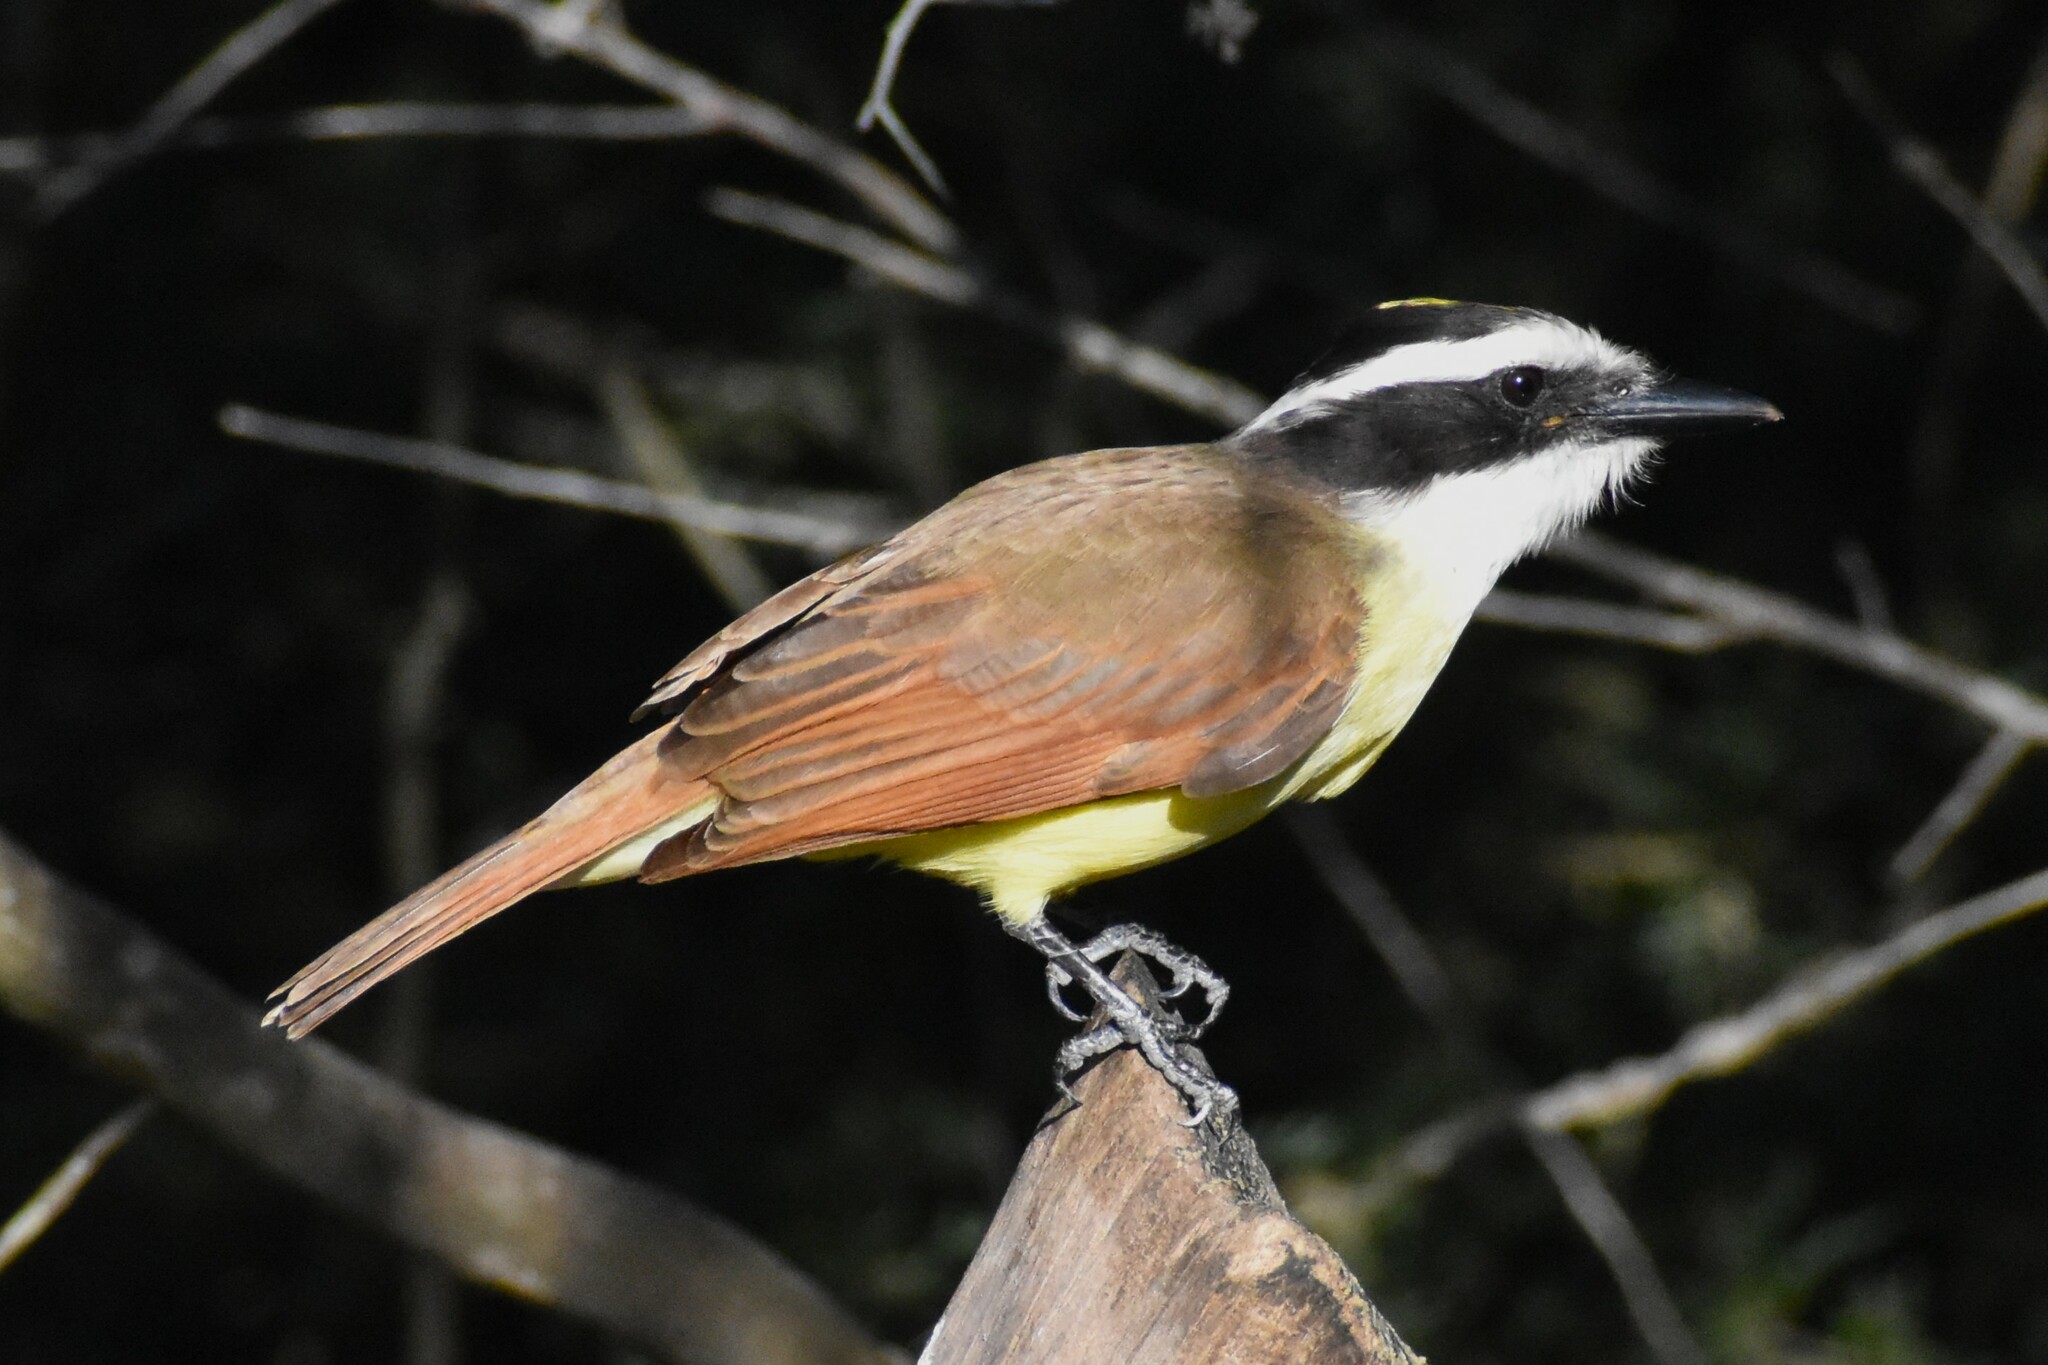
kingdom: Animalia
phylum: Chordata
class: Aves
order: Passeriformes
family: Tyrannidae
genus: Pitangus
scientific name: Pitangus sulphuratus
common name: Great kiskadee
